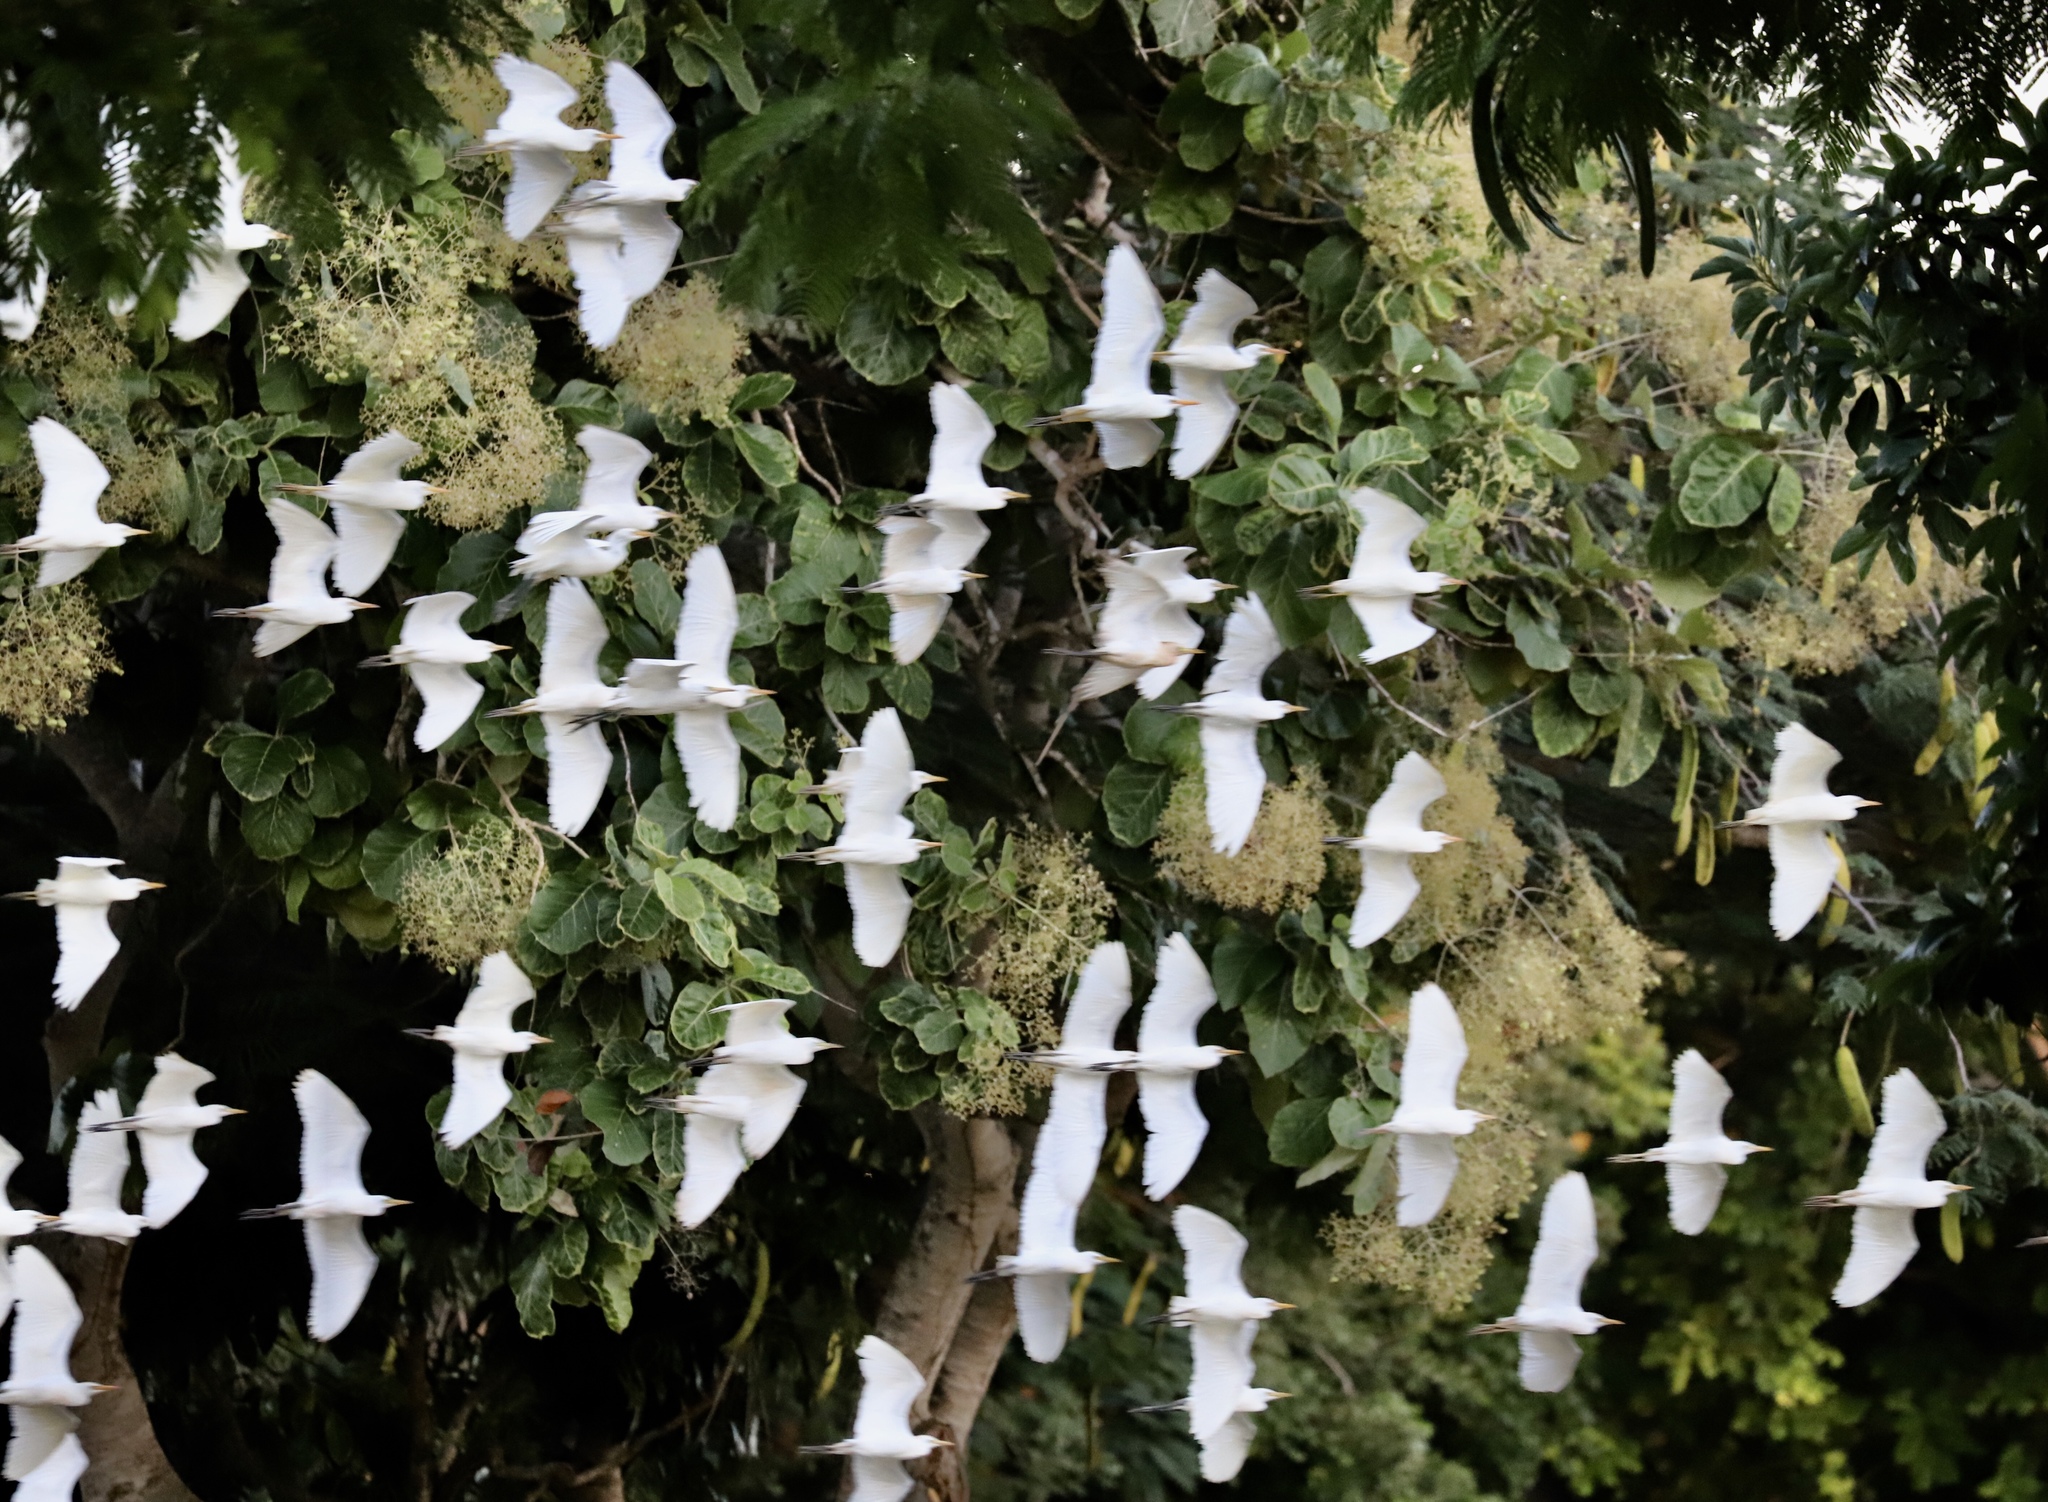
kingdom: Animalia
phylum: Chordata
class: Aves
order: Pelecaniformes
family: Ardeidae
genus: Bubulcus
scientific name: Bubulcus ibis
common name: Cattle egret
